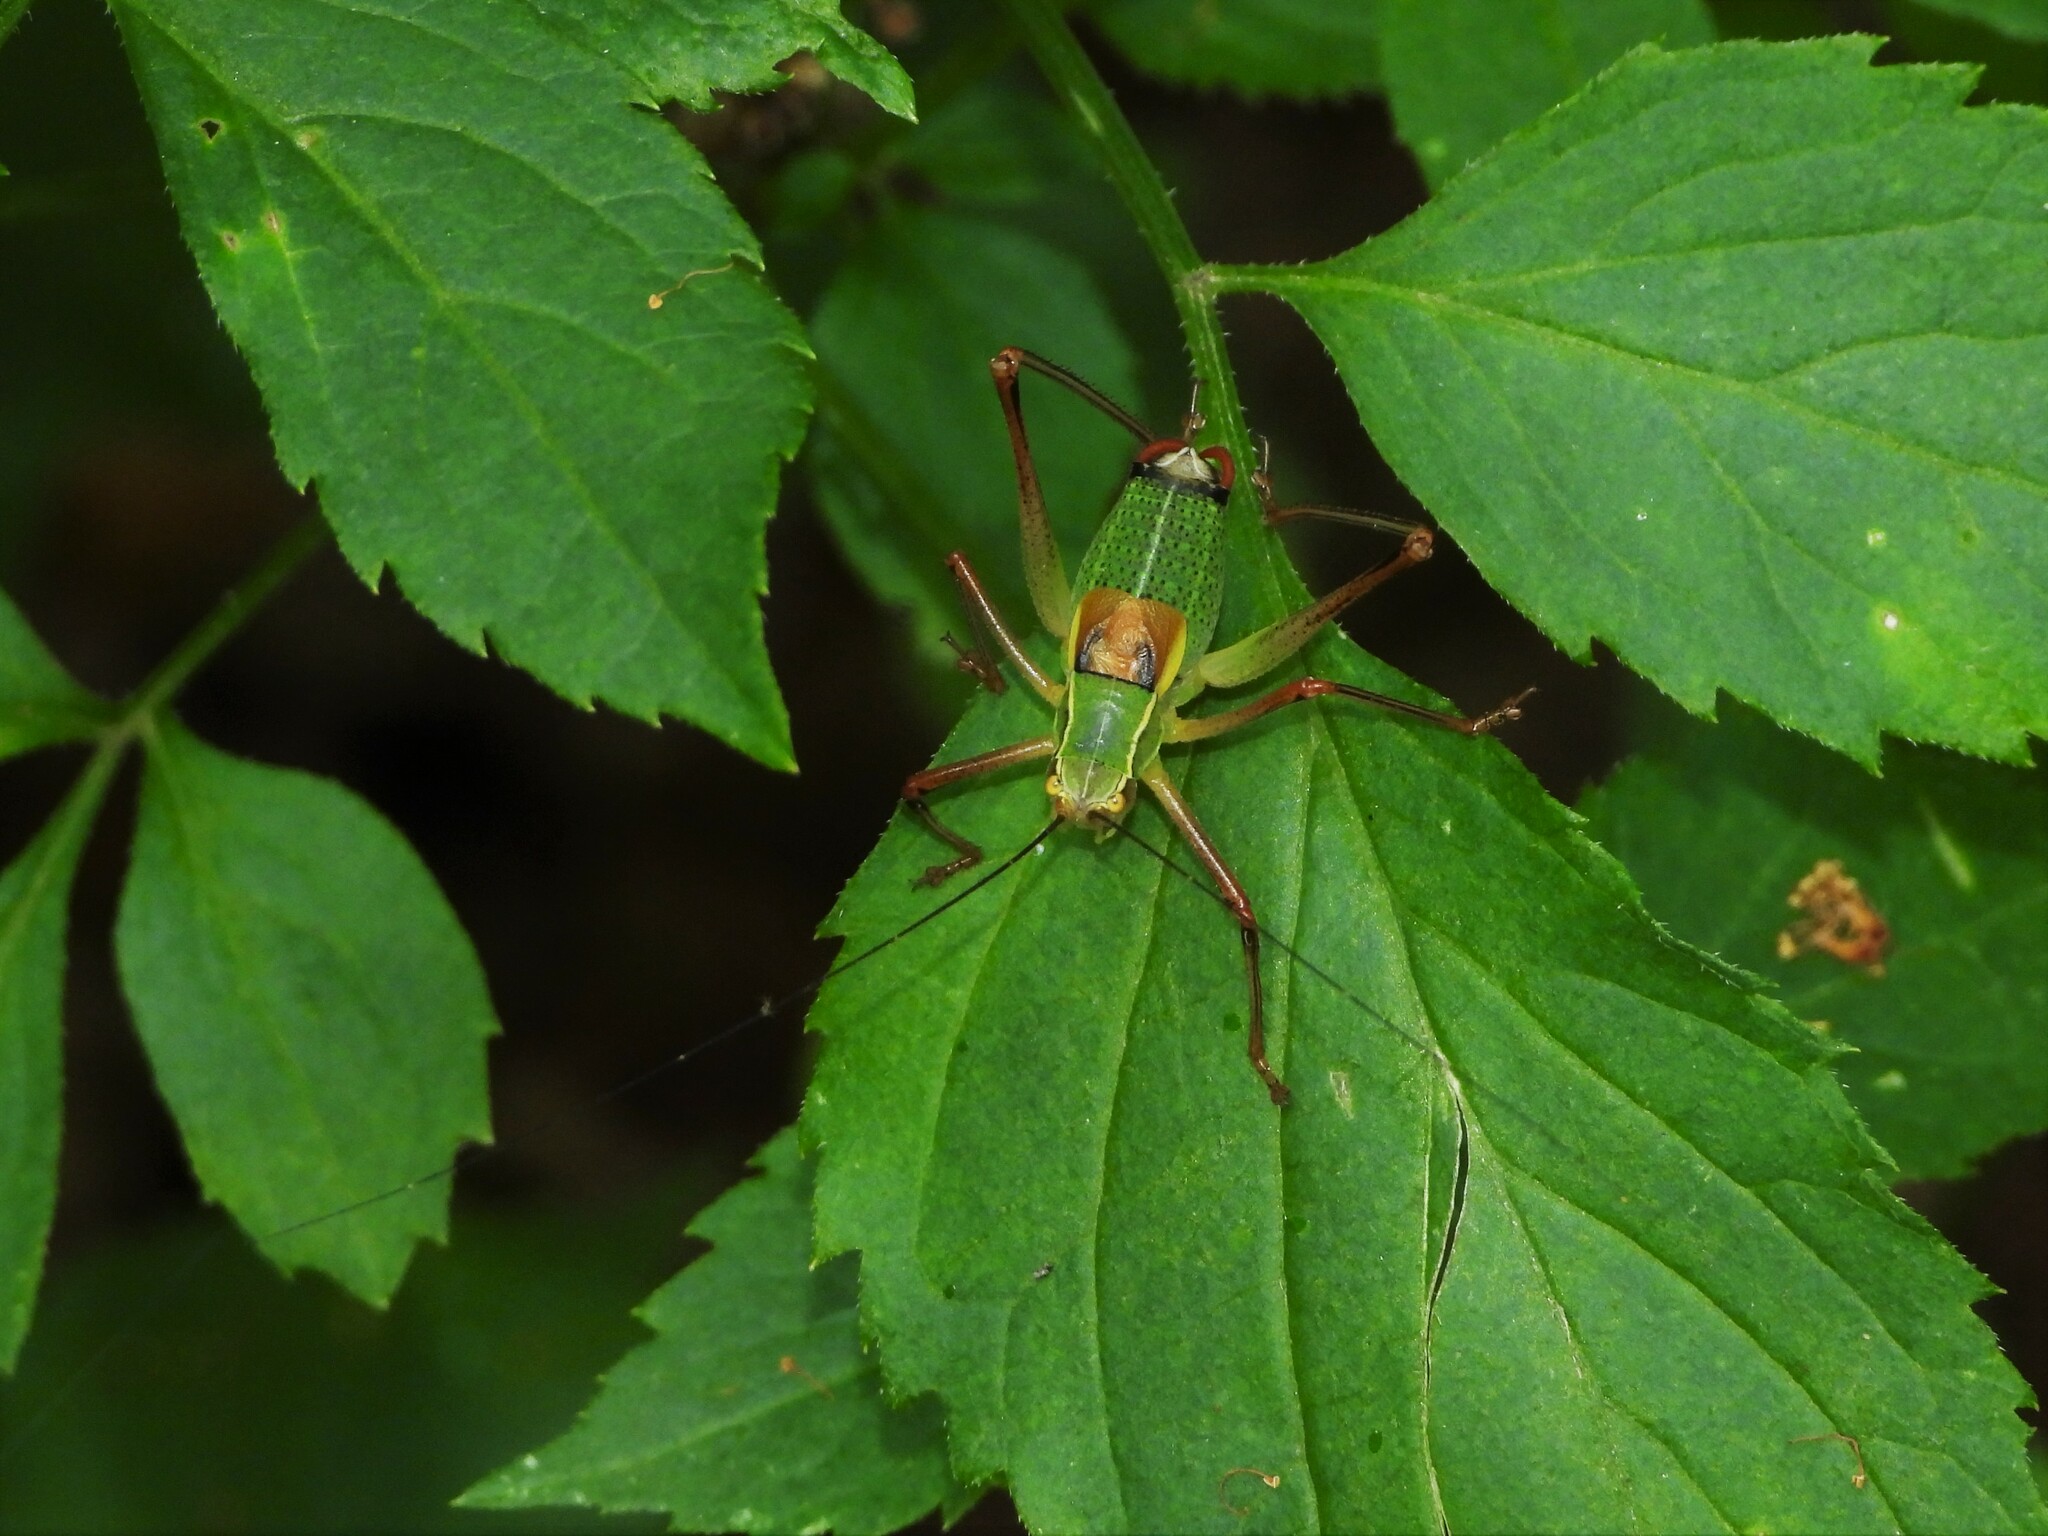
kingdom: Animalia
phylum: Arthropoda
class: Insecta
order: Orthoptera
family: Tettigoniidae
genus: Barbitistes
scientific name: Barbitistes obtusus
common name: Alpine saw bush-cricket
